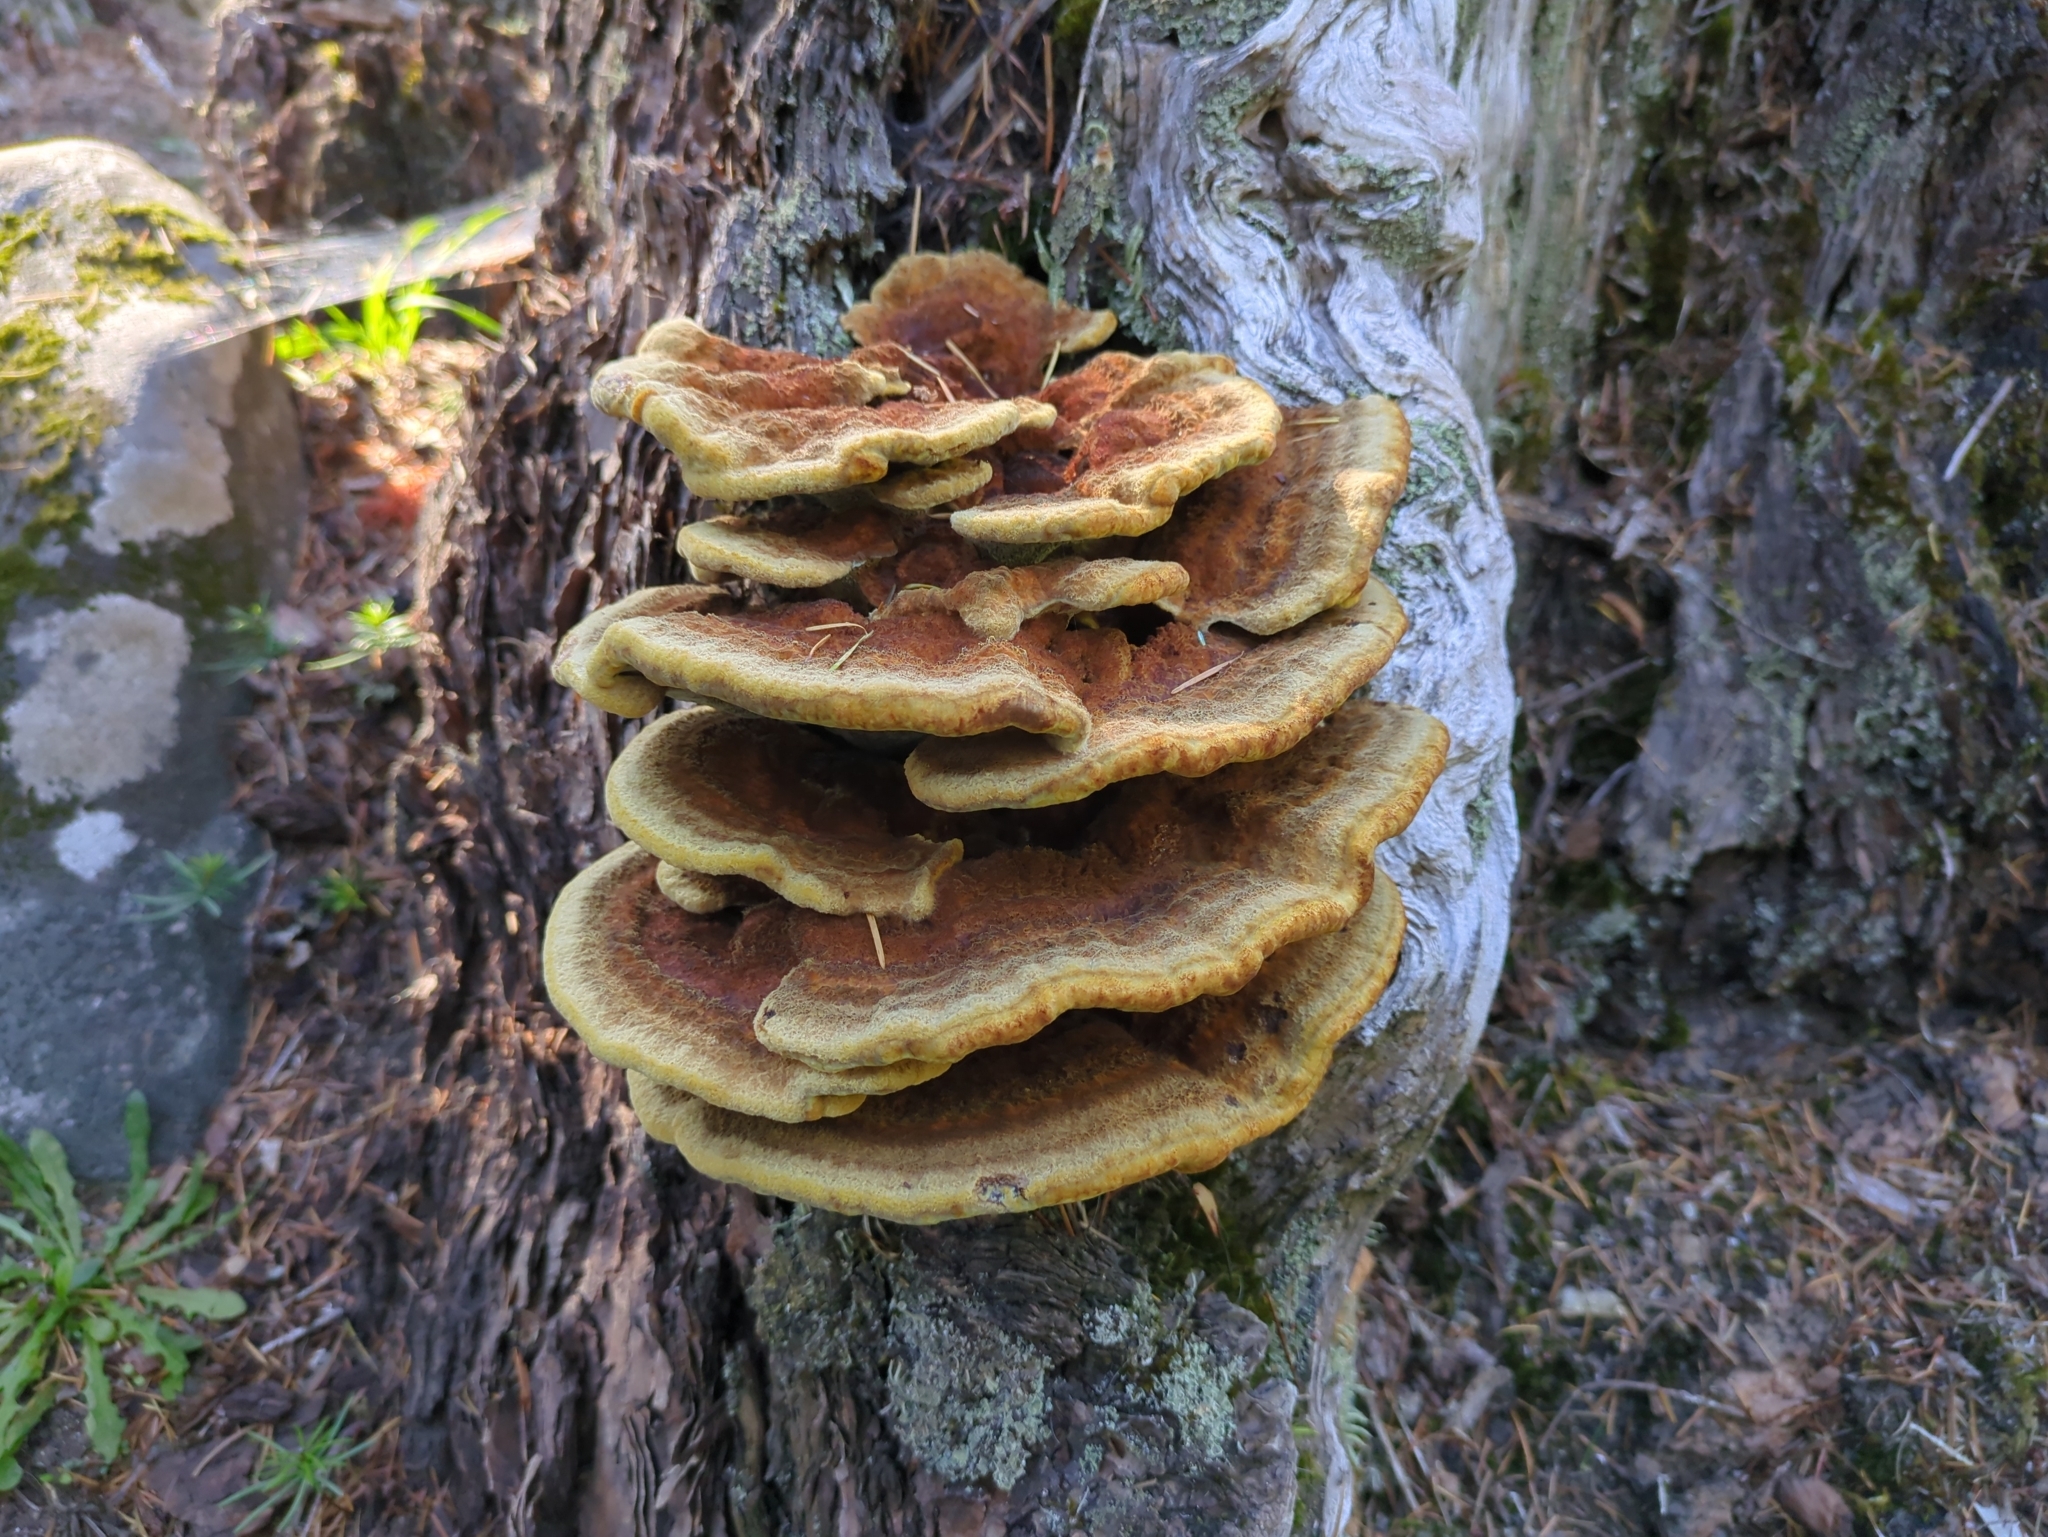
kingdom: Fungi
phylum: Basidiomycota
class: Agaricomycetes
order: Polyporales
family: Laetiporaceae
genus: Phaeolus
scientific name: Phaeolus schweinitzii
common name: Dyer's mazegill
